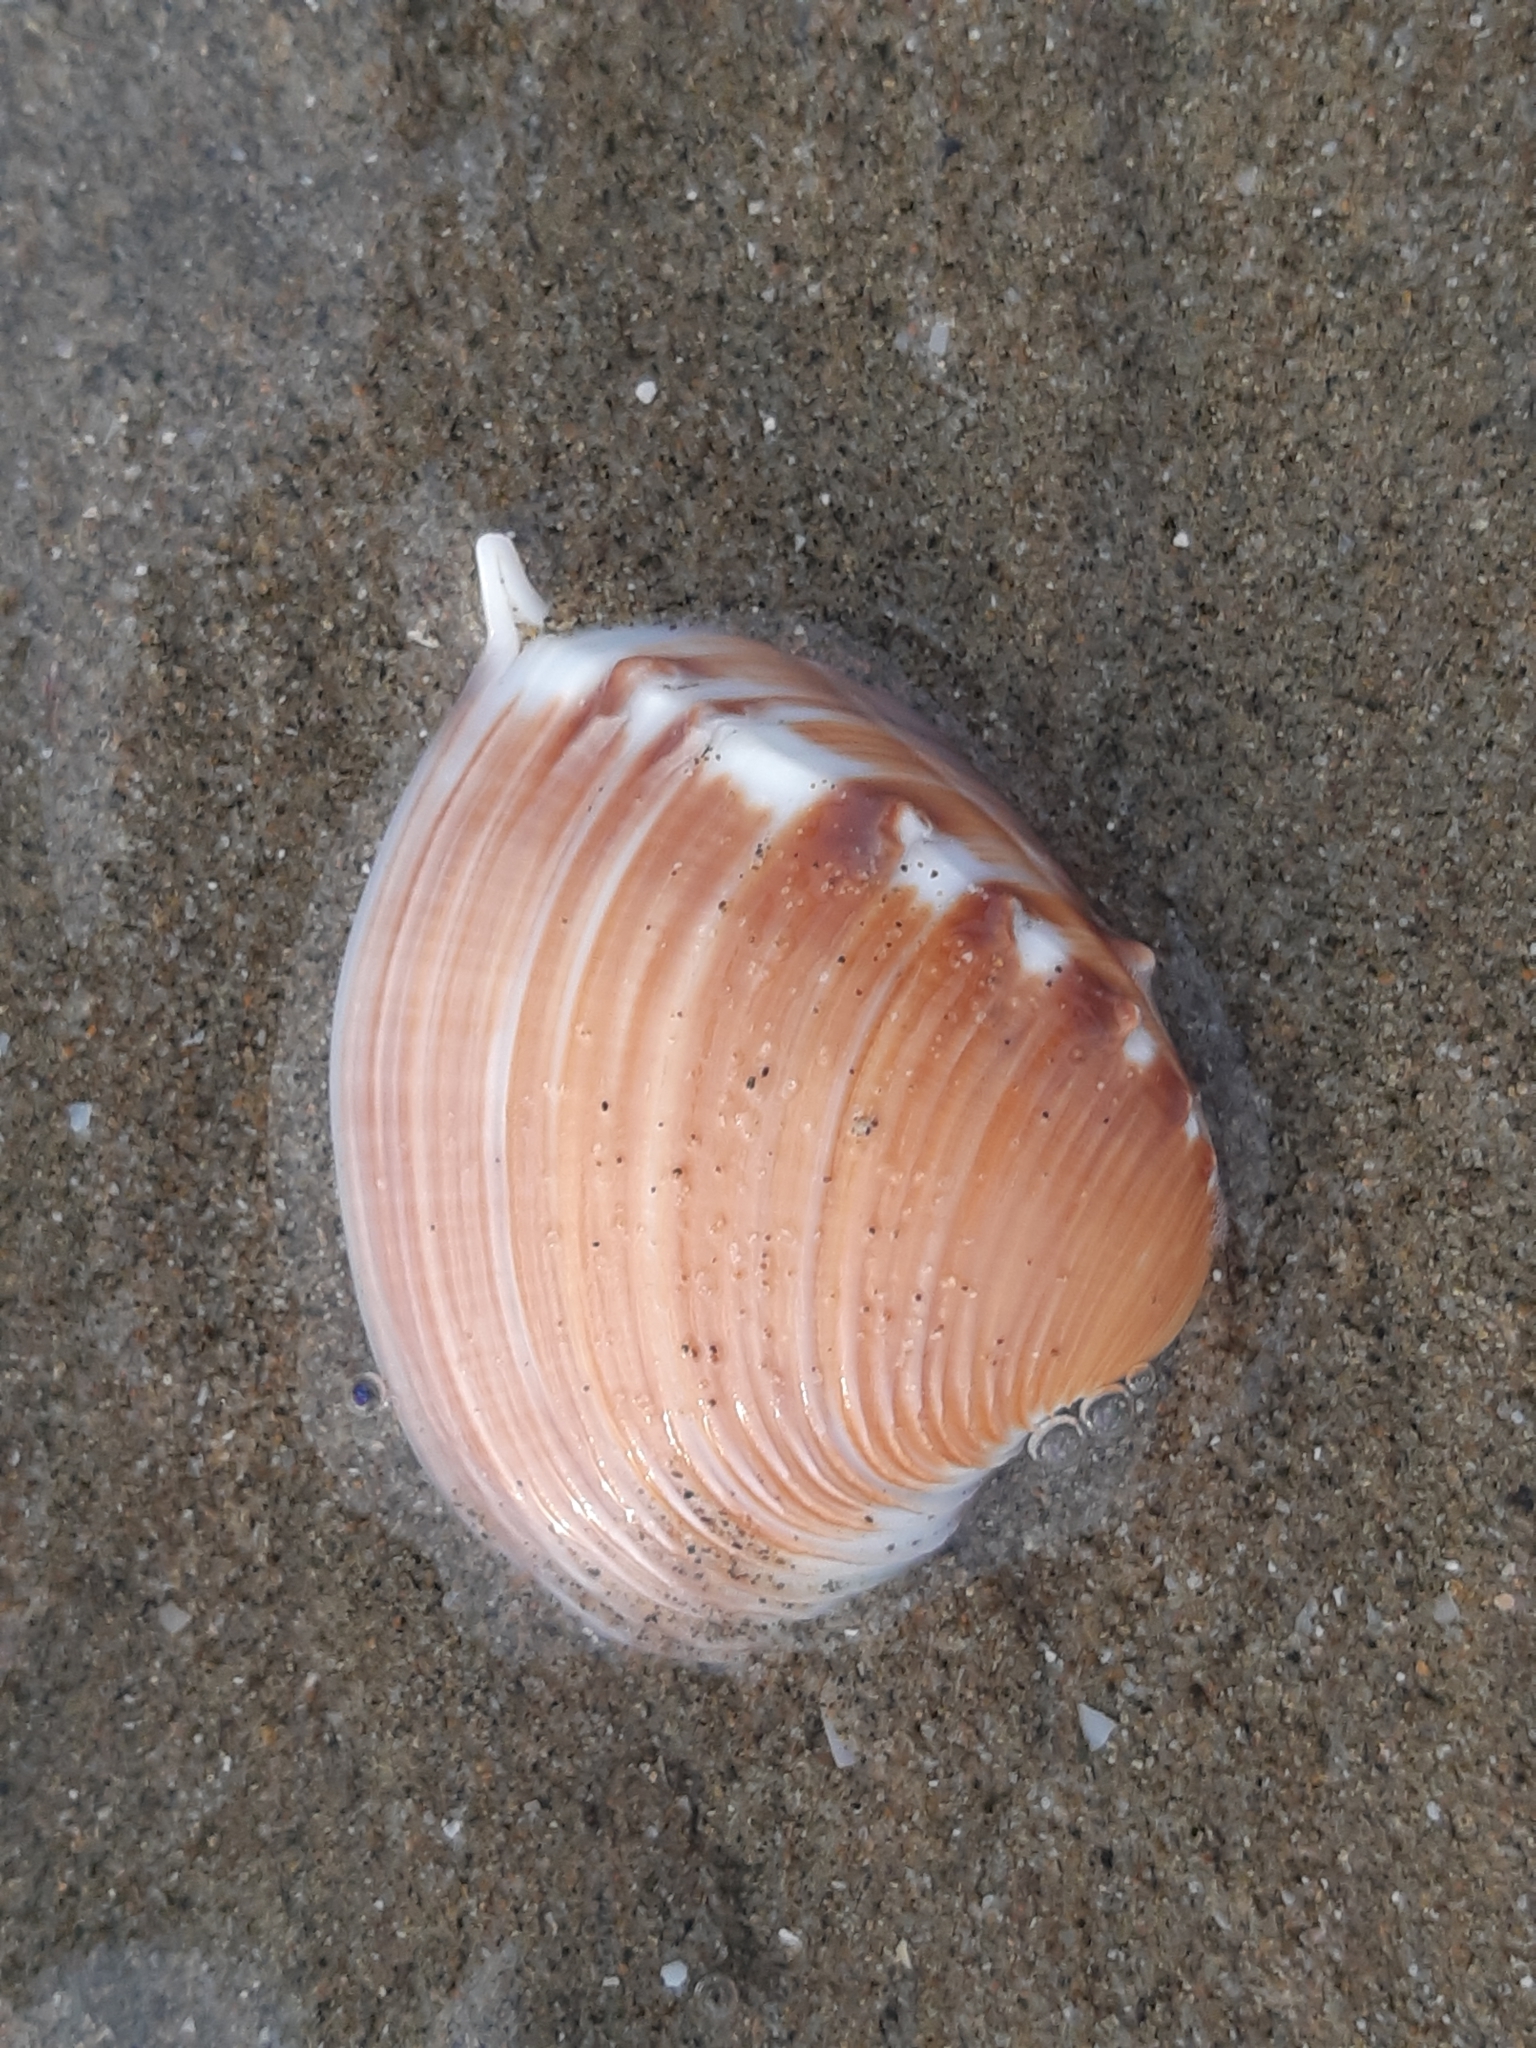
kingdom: Animalia
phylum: Mollusca
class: Bivalvia
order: Venerida
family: Veneridae
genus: Hysteroconcha
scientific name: Hysteroconcha lupanaria
